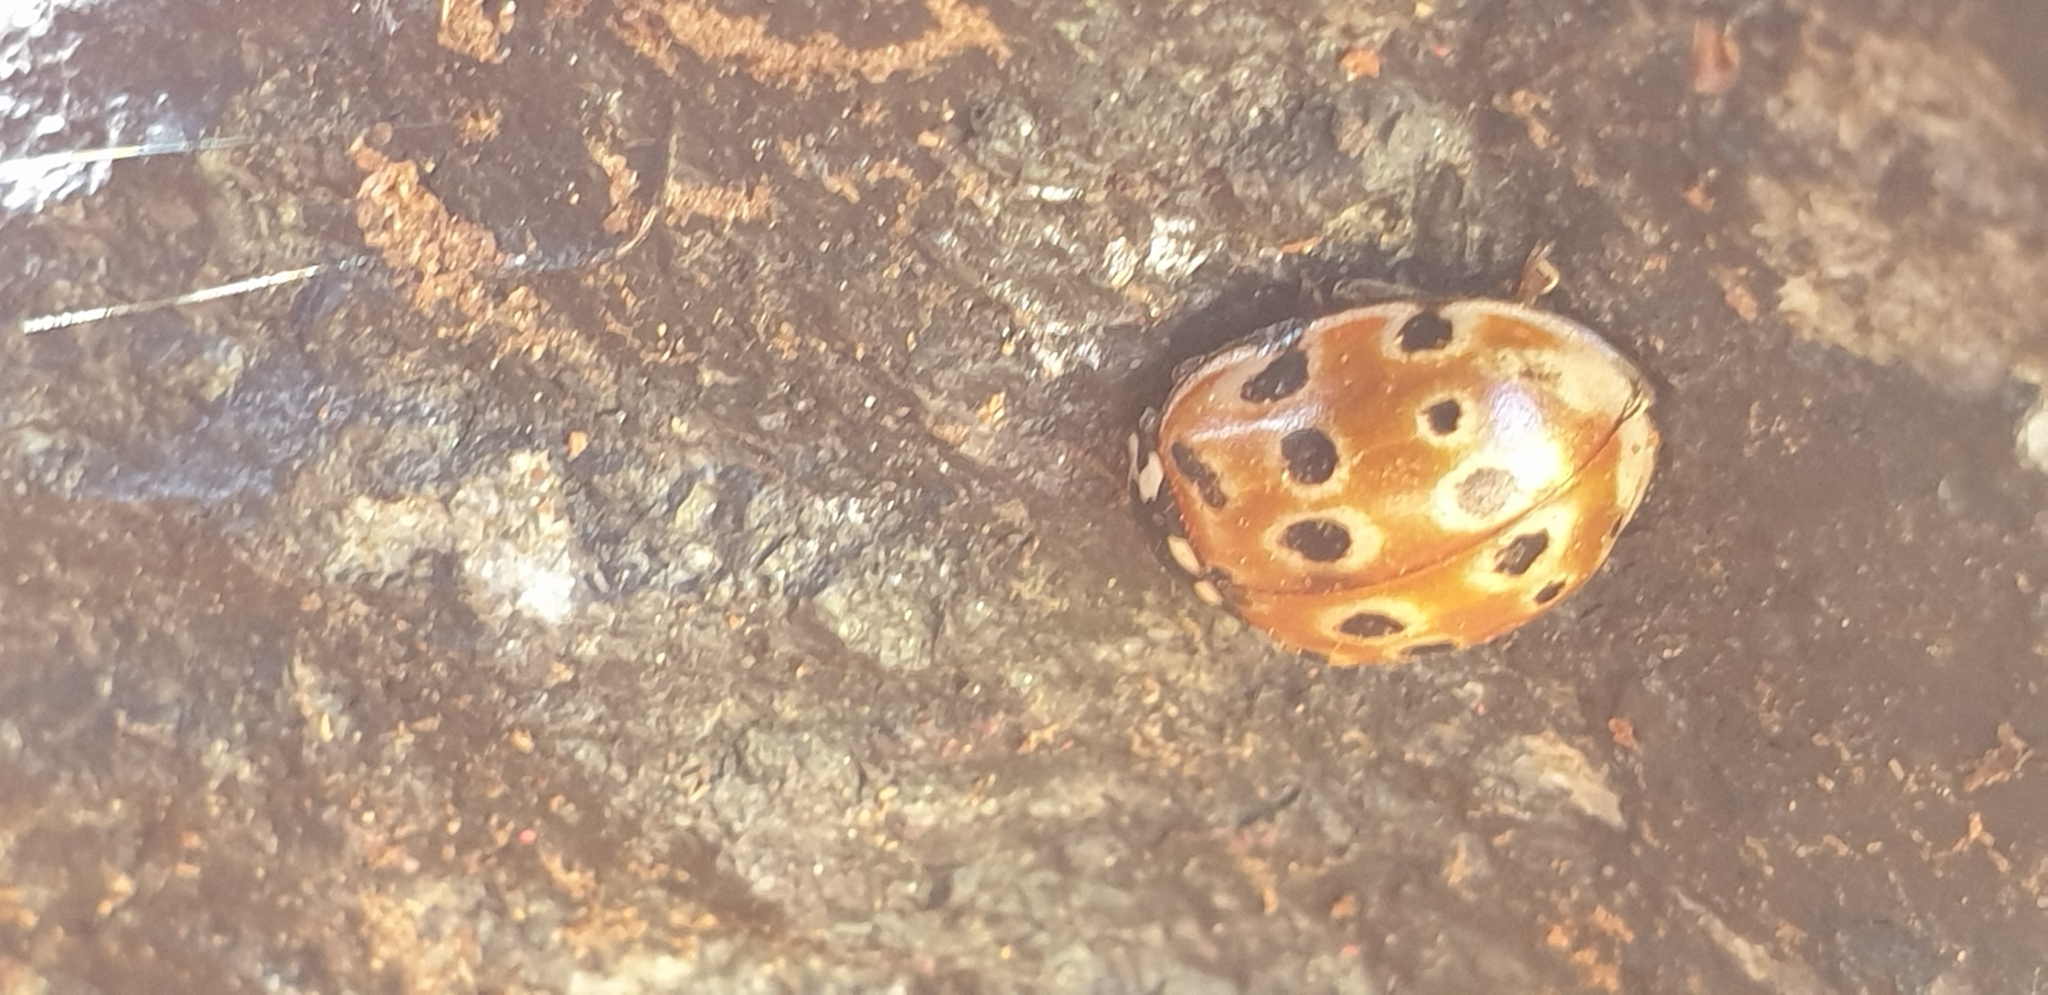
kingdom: Animalia
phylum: Arthropoda
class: Insecta
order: Coleoptera
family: Coccinellidae
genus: Anatis
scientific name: Anatis ocellata
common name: Eyed ladybird
